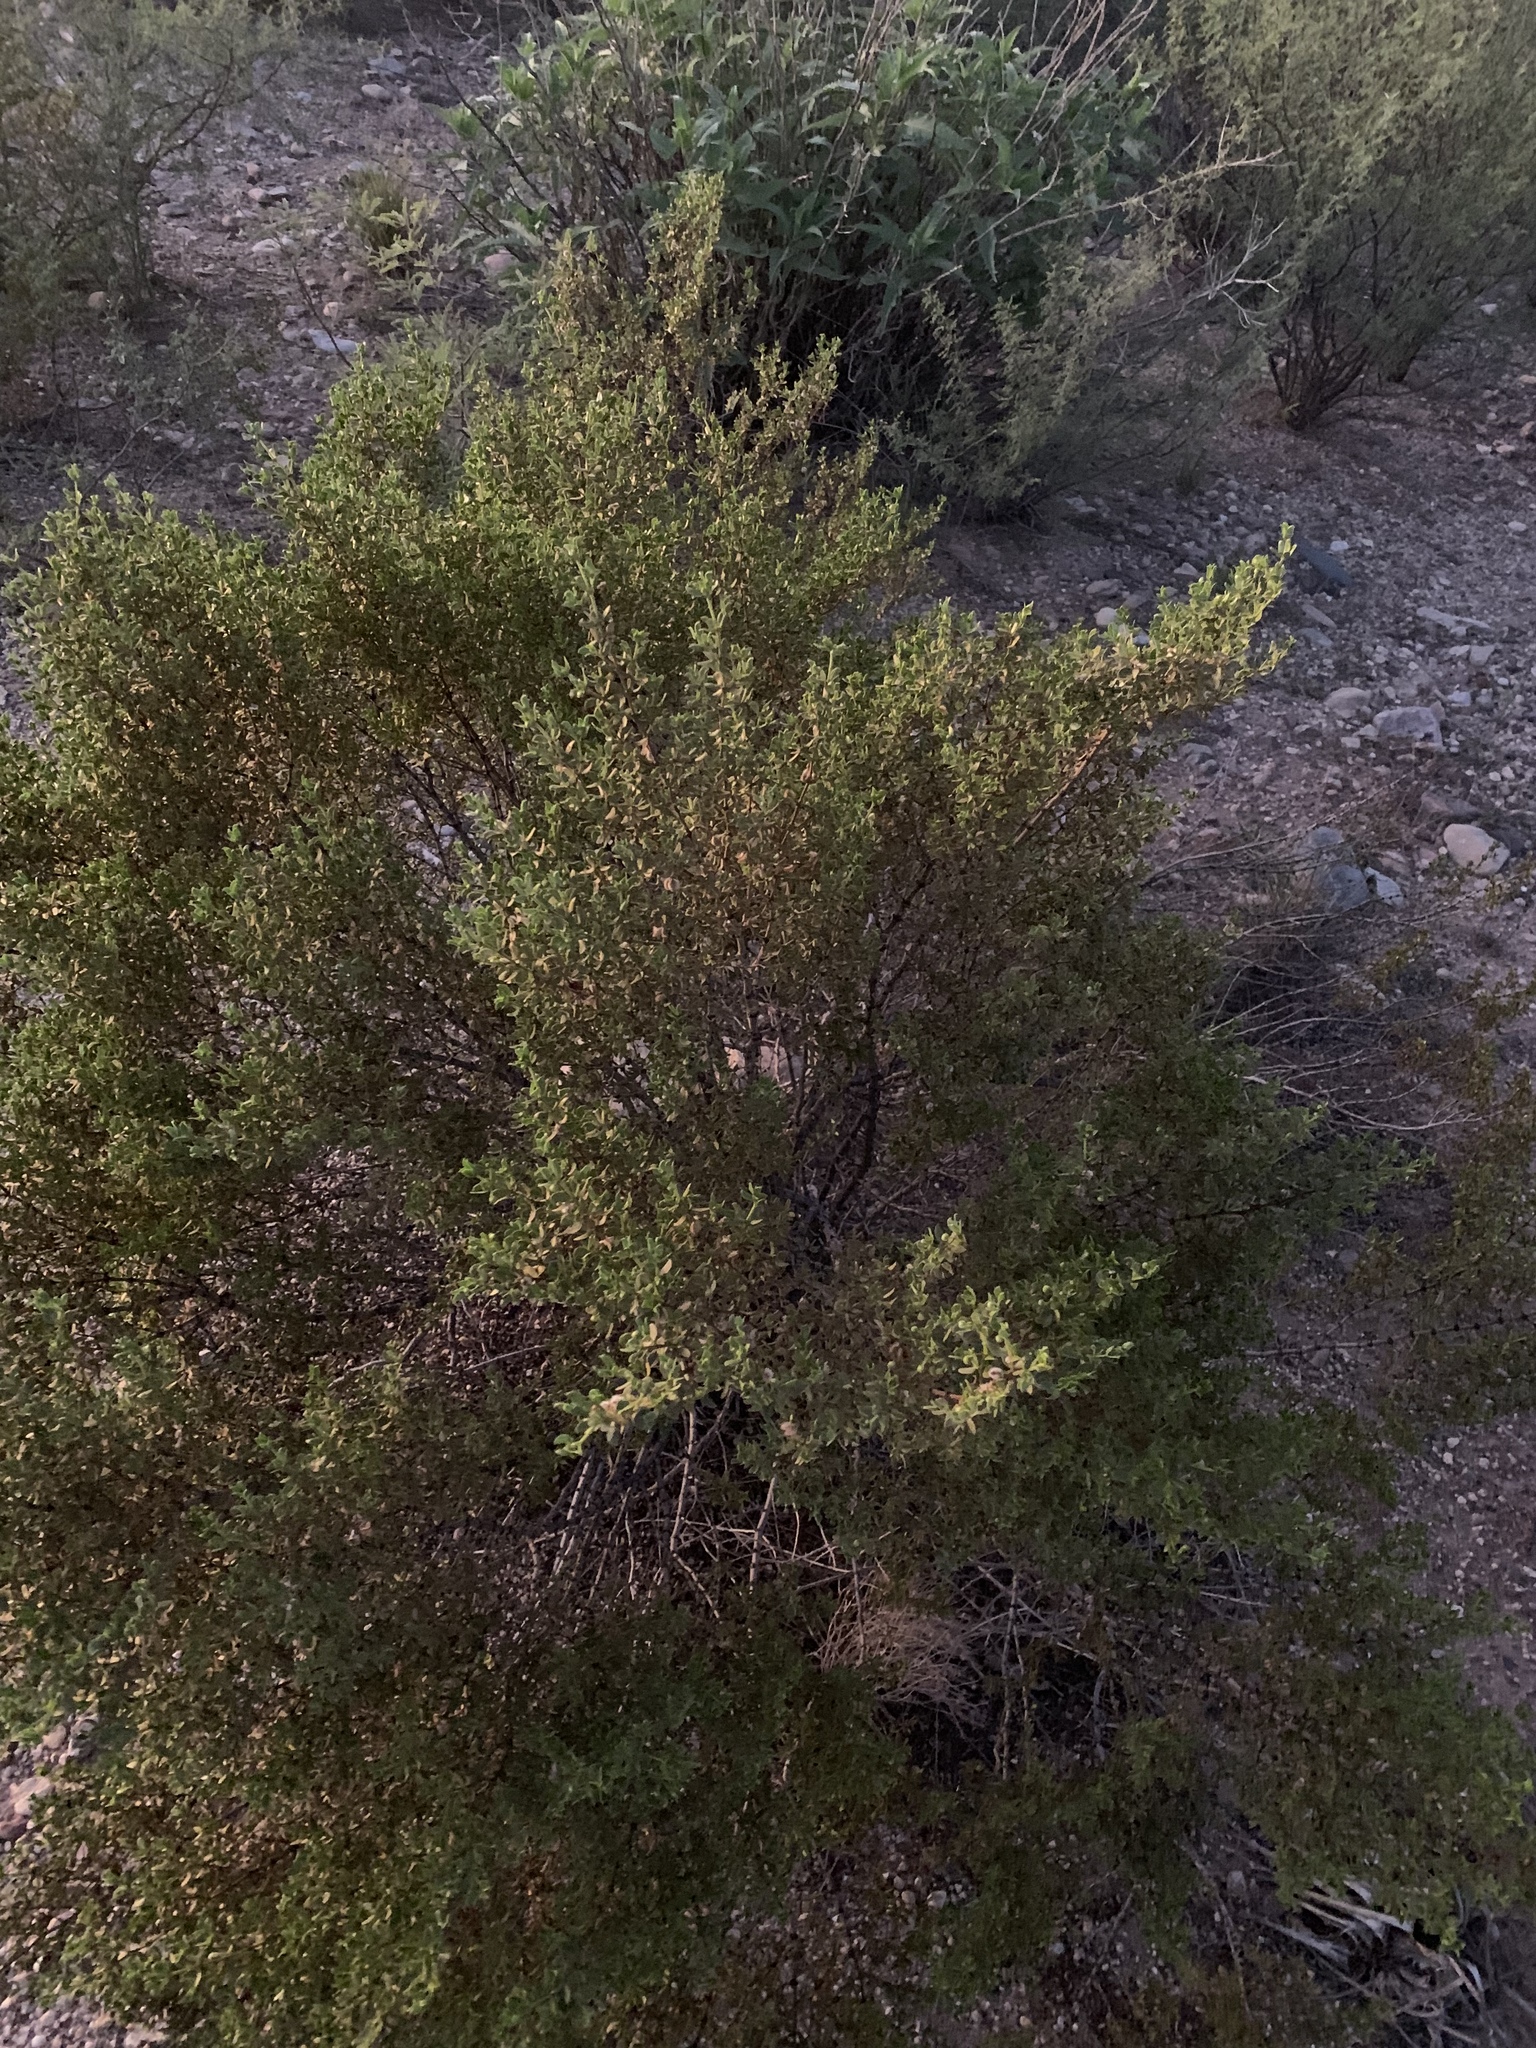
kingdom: Plantae
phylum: Tracheophyta
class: Magnoliopsida
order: Zygophyllales
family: Zygophyllaceae
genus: Larrea
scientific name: Larrea tridentata
